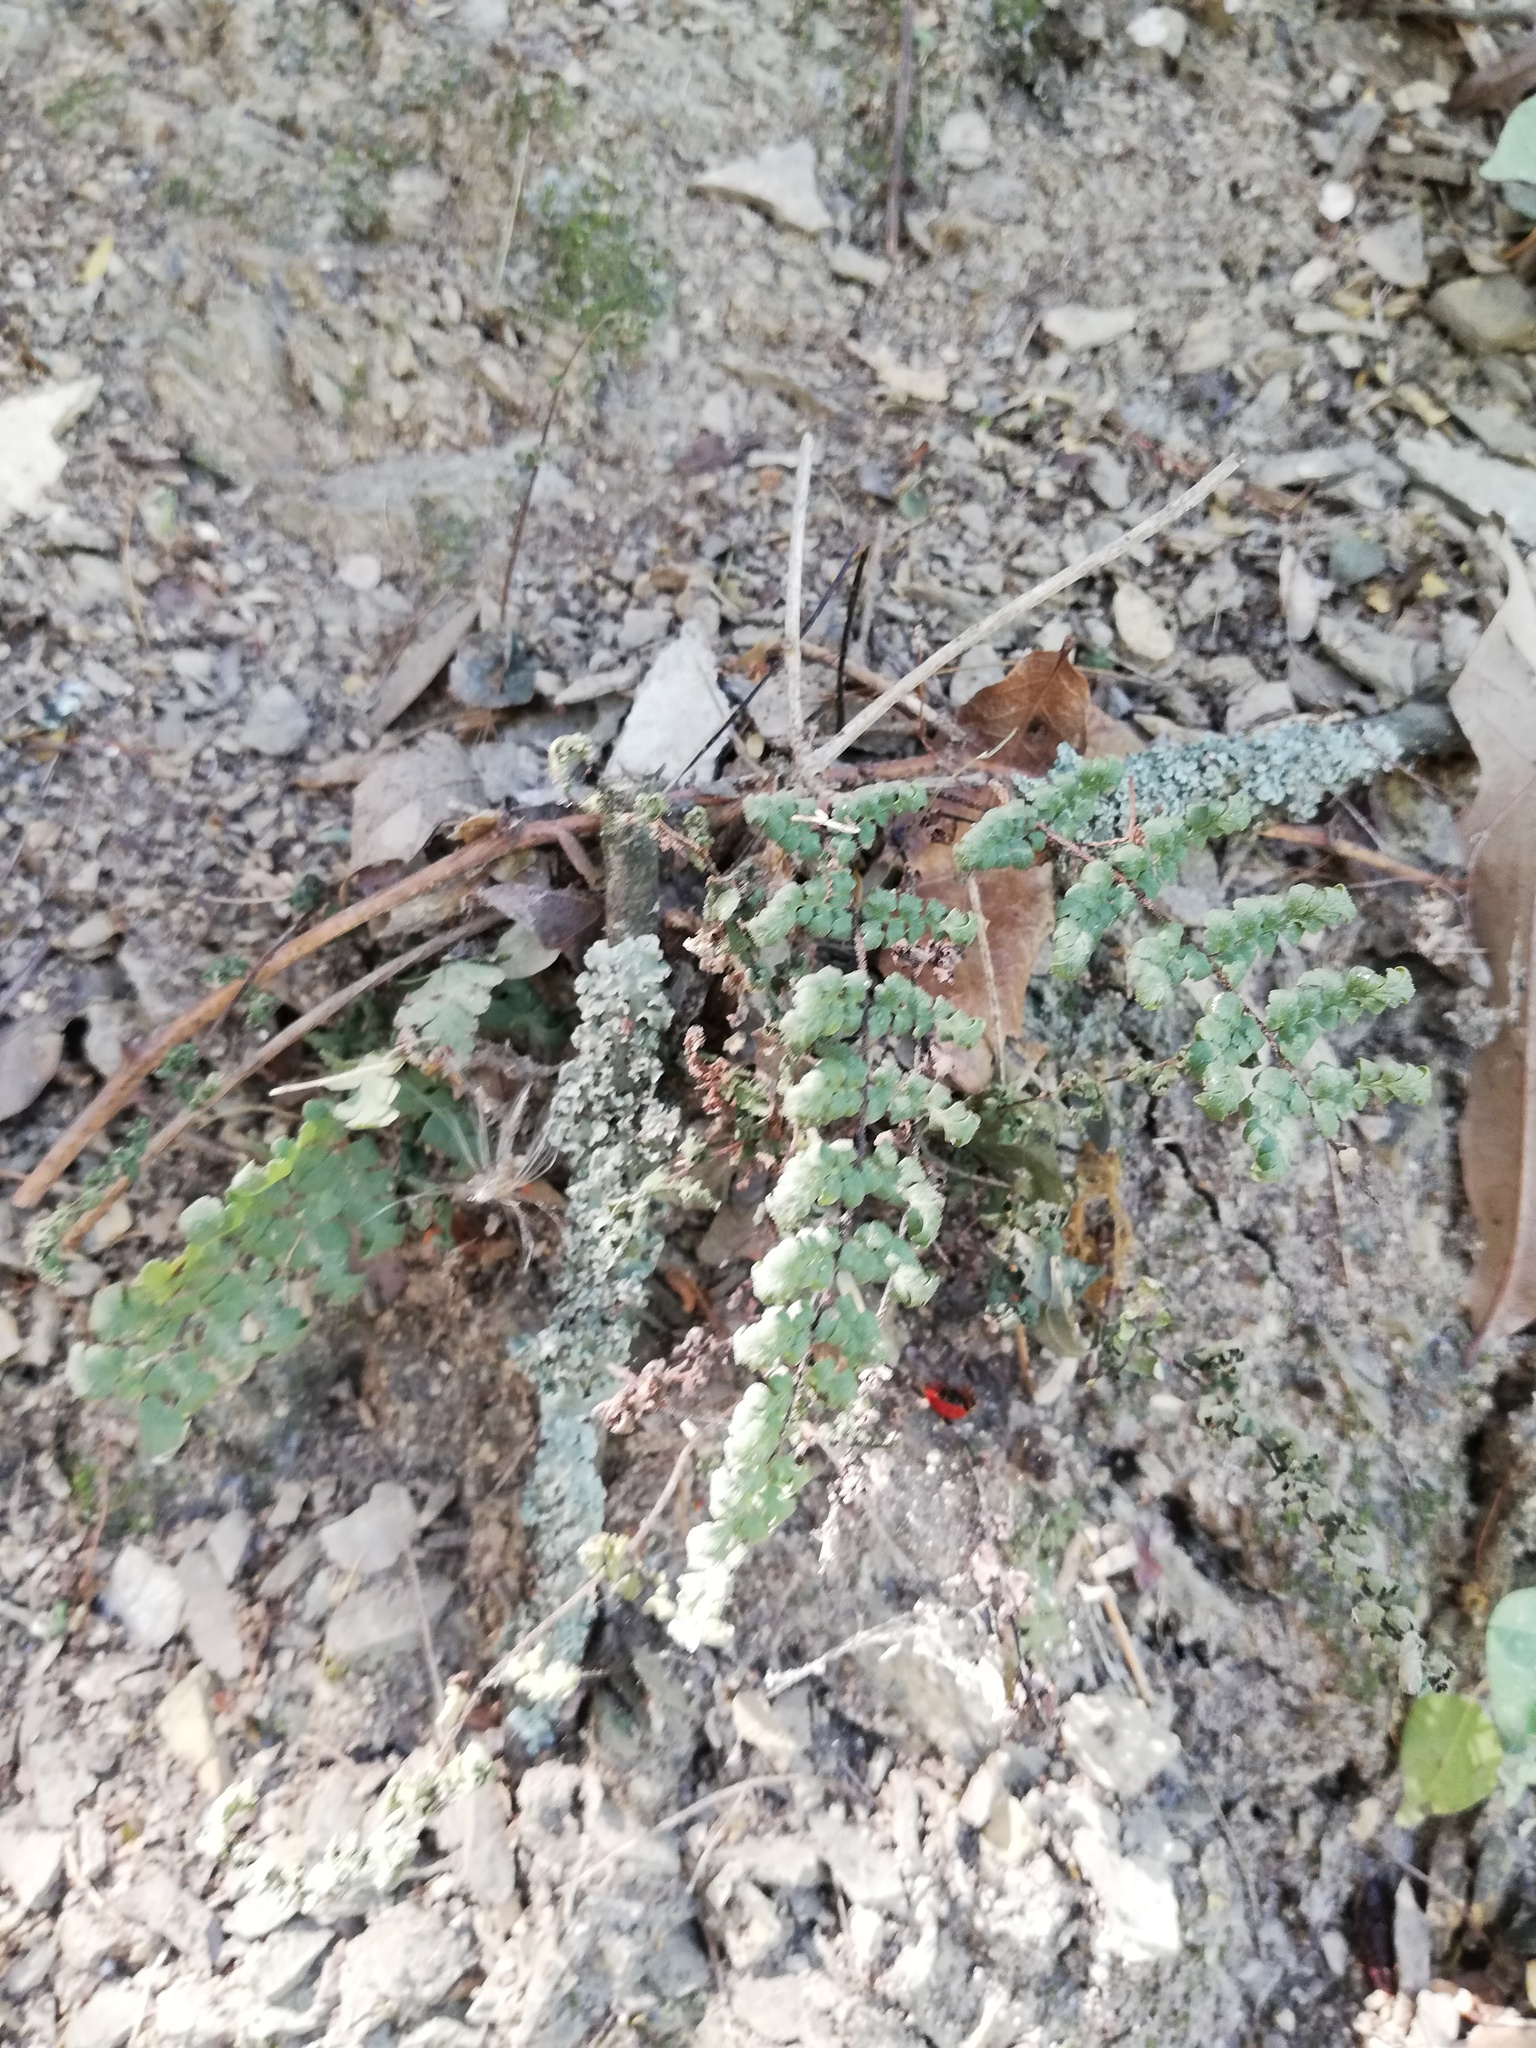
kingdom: Plantae
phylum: Tracheophyta
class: Polypodiopsida
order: Polypodiales
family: Pteridaceae
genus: Myriopteris
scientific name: Myriopteris alabamensis
